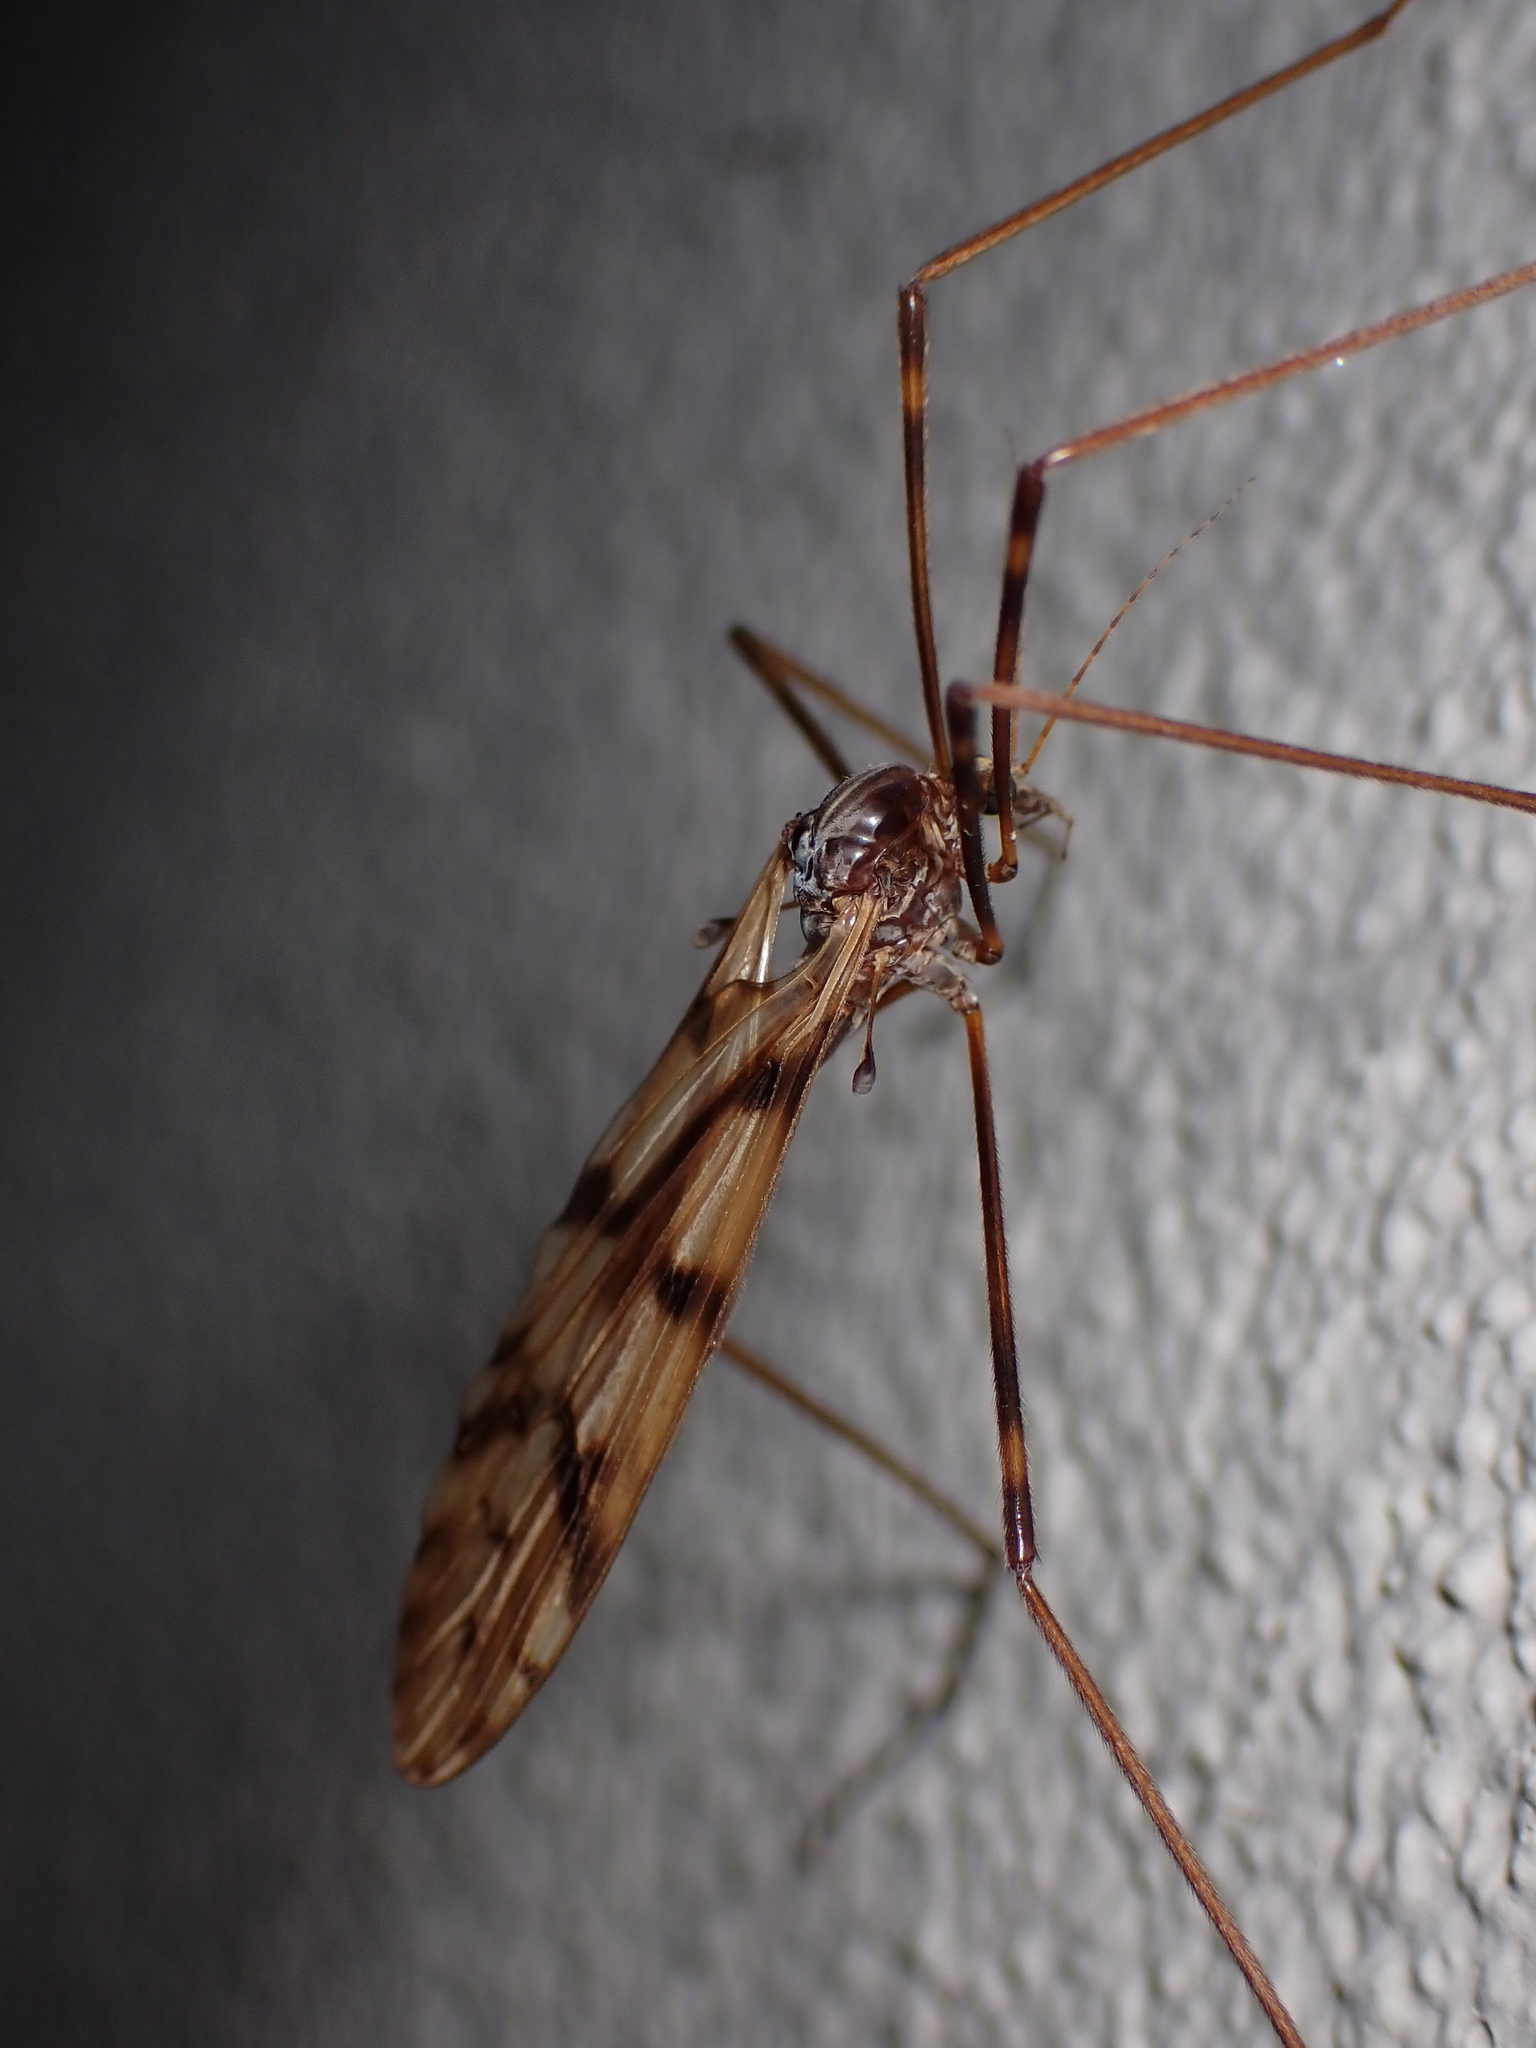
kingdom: Animalia
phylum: Arthropoda
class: Insecta
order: Diptera
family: Limoniidae
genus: Austrolimnophila
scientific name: Austrolimnophila cyatheti
